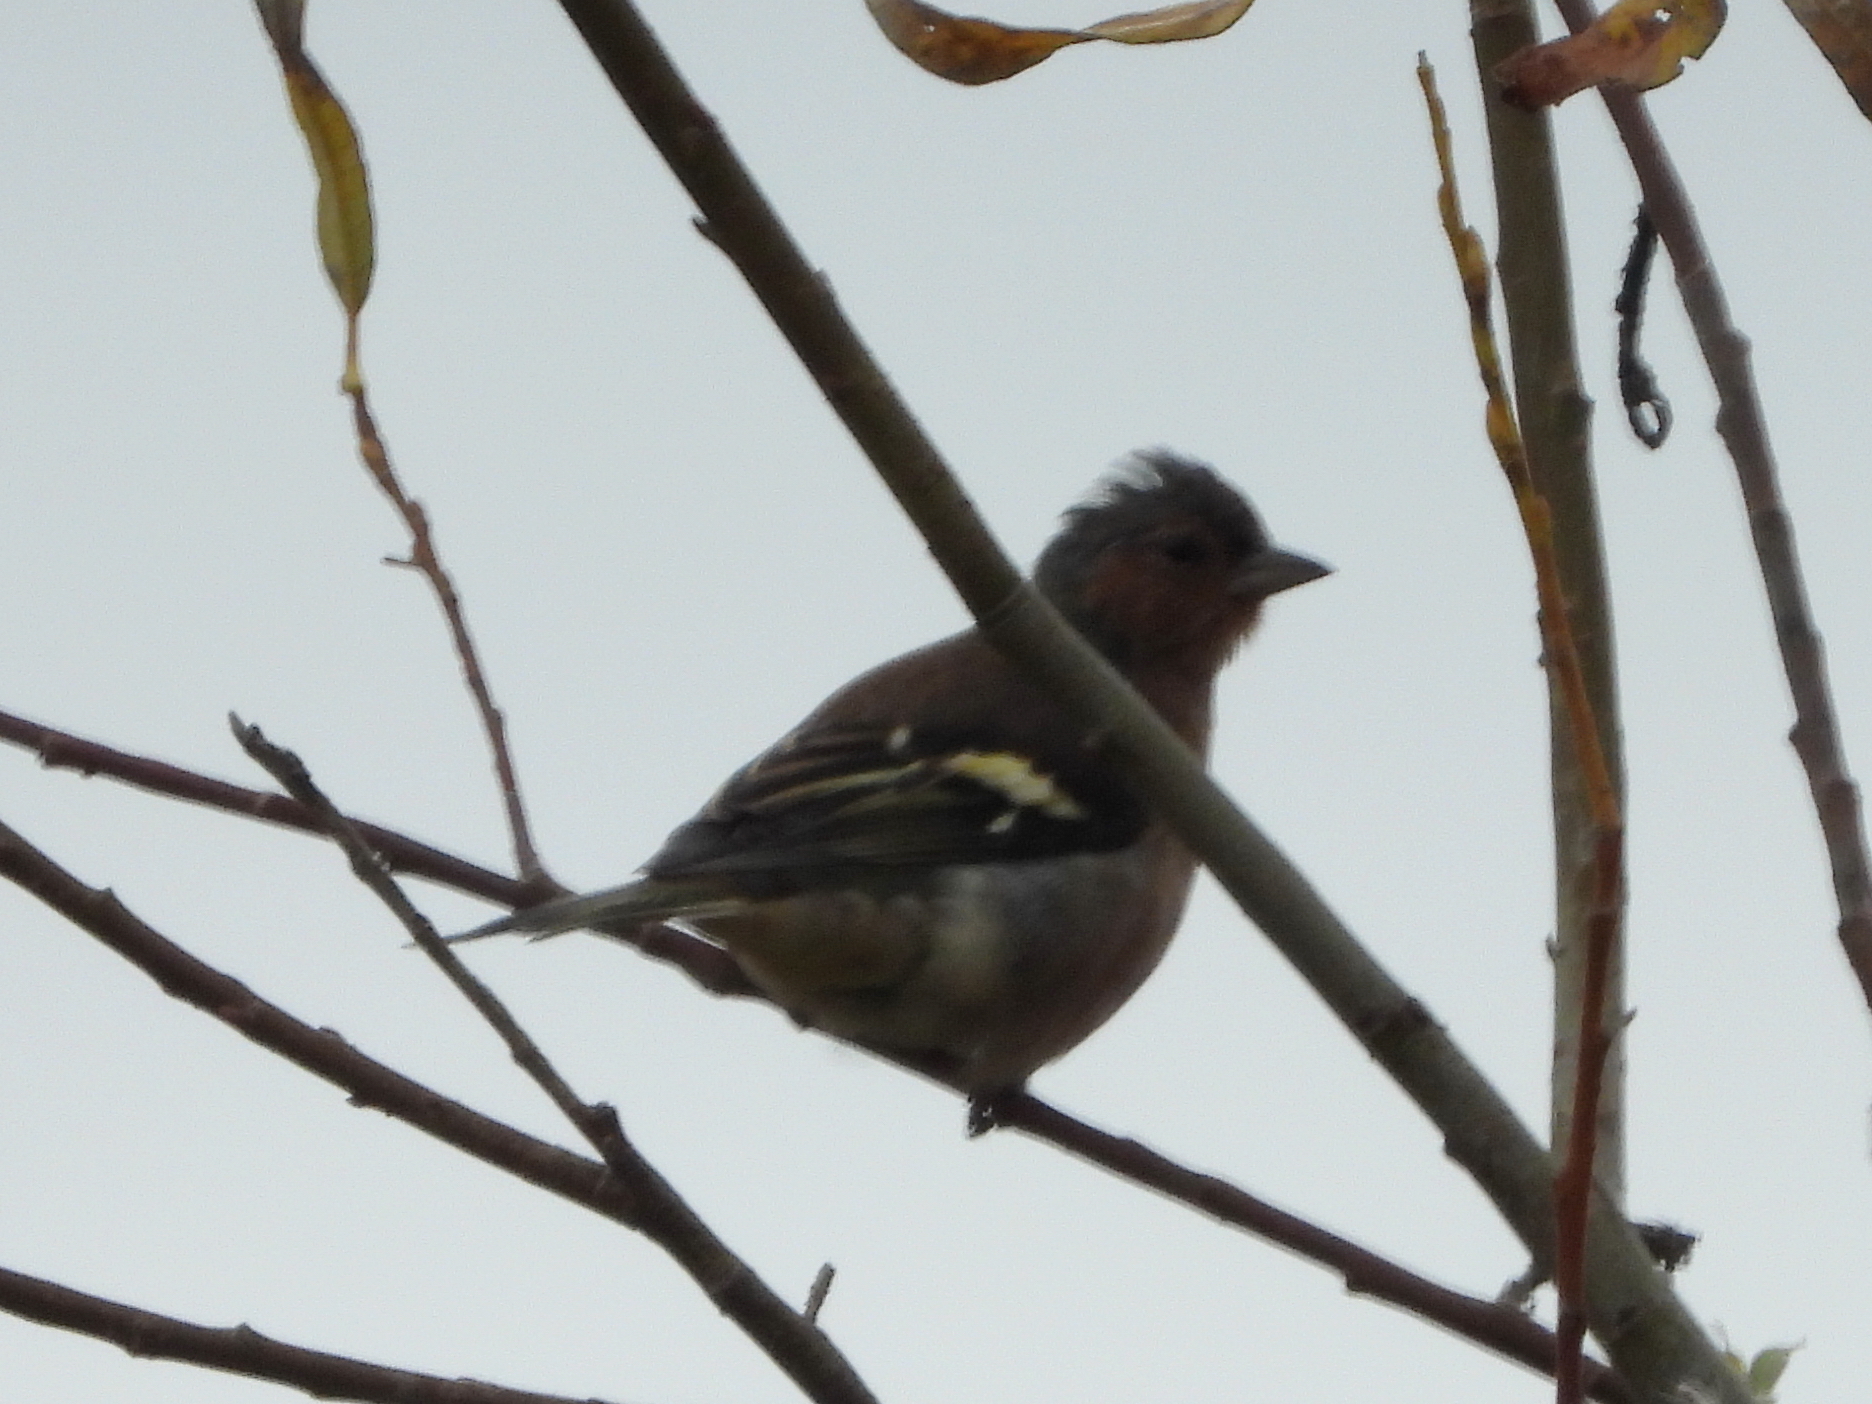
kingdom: Animalia
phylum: Chordata
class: Aves
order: Passeriformes
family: Fringillidae
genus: Fringilla
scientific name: Fringilla coelebs
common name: Common chaffinch
